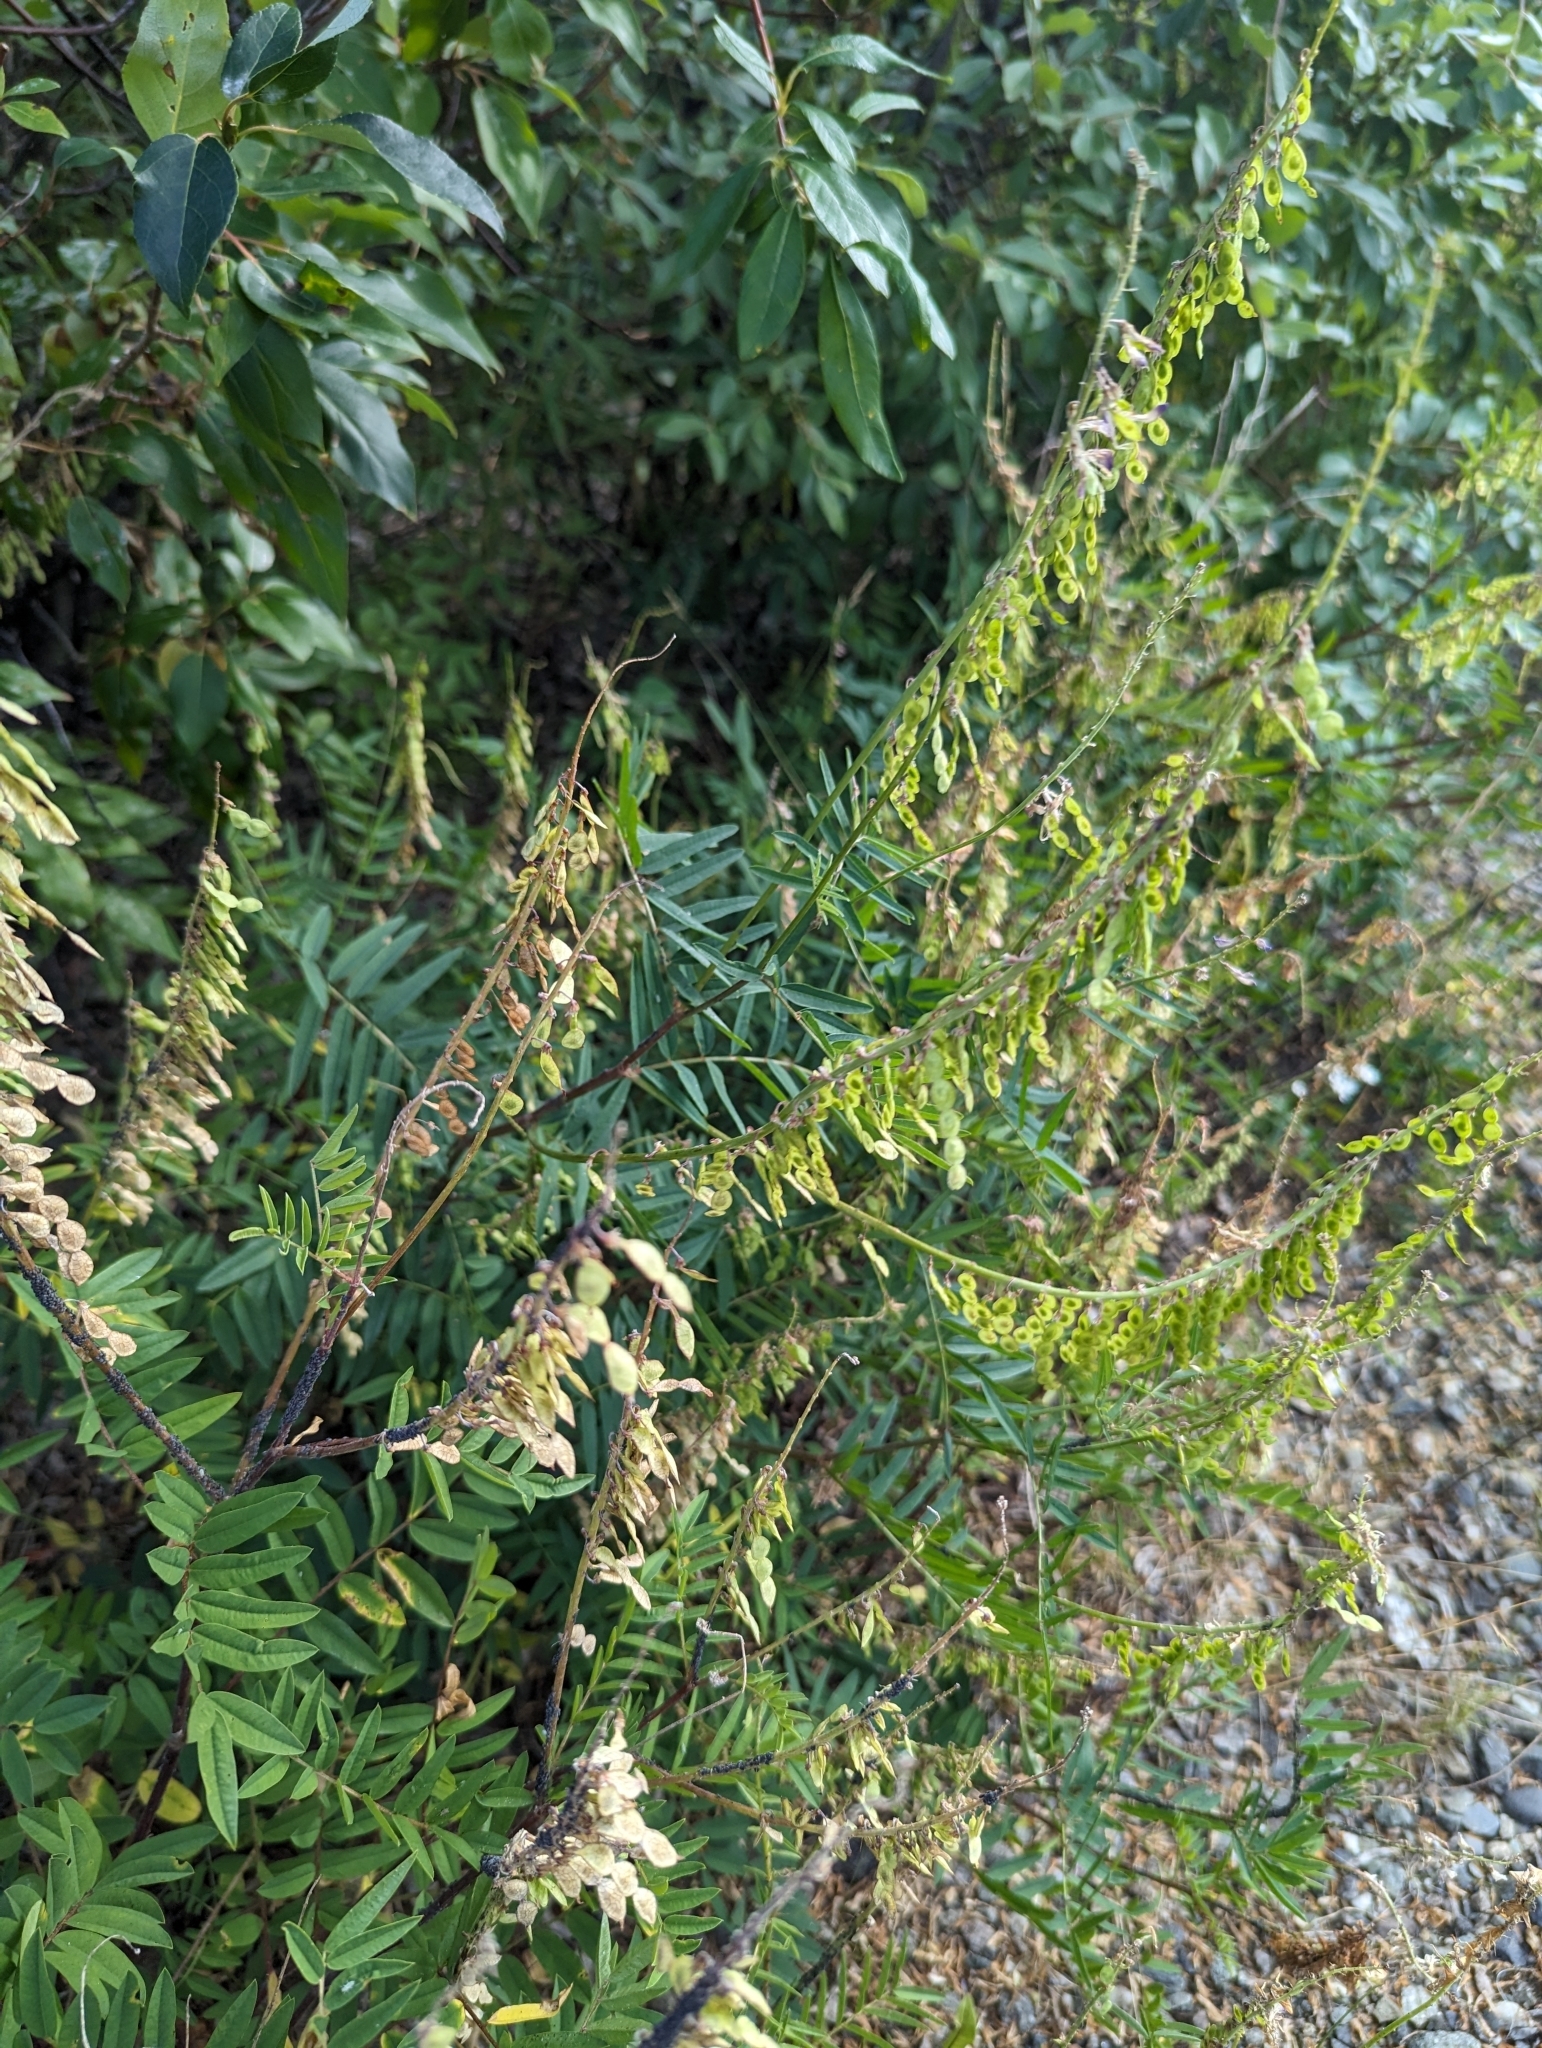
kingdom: Plantae
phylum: Tracheophyta
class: Magnoliopsida
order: Fabales
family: Fabaceae
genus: Hedysarum
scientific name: Hedysarum alpinum
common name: Alpine sweet-vetch
